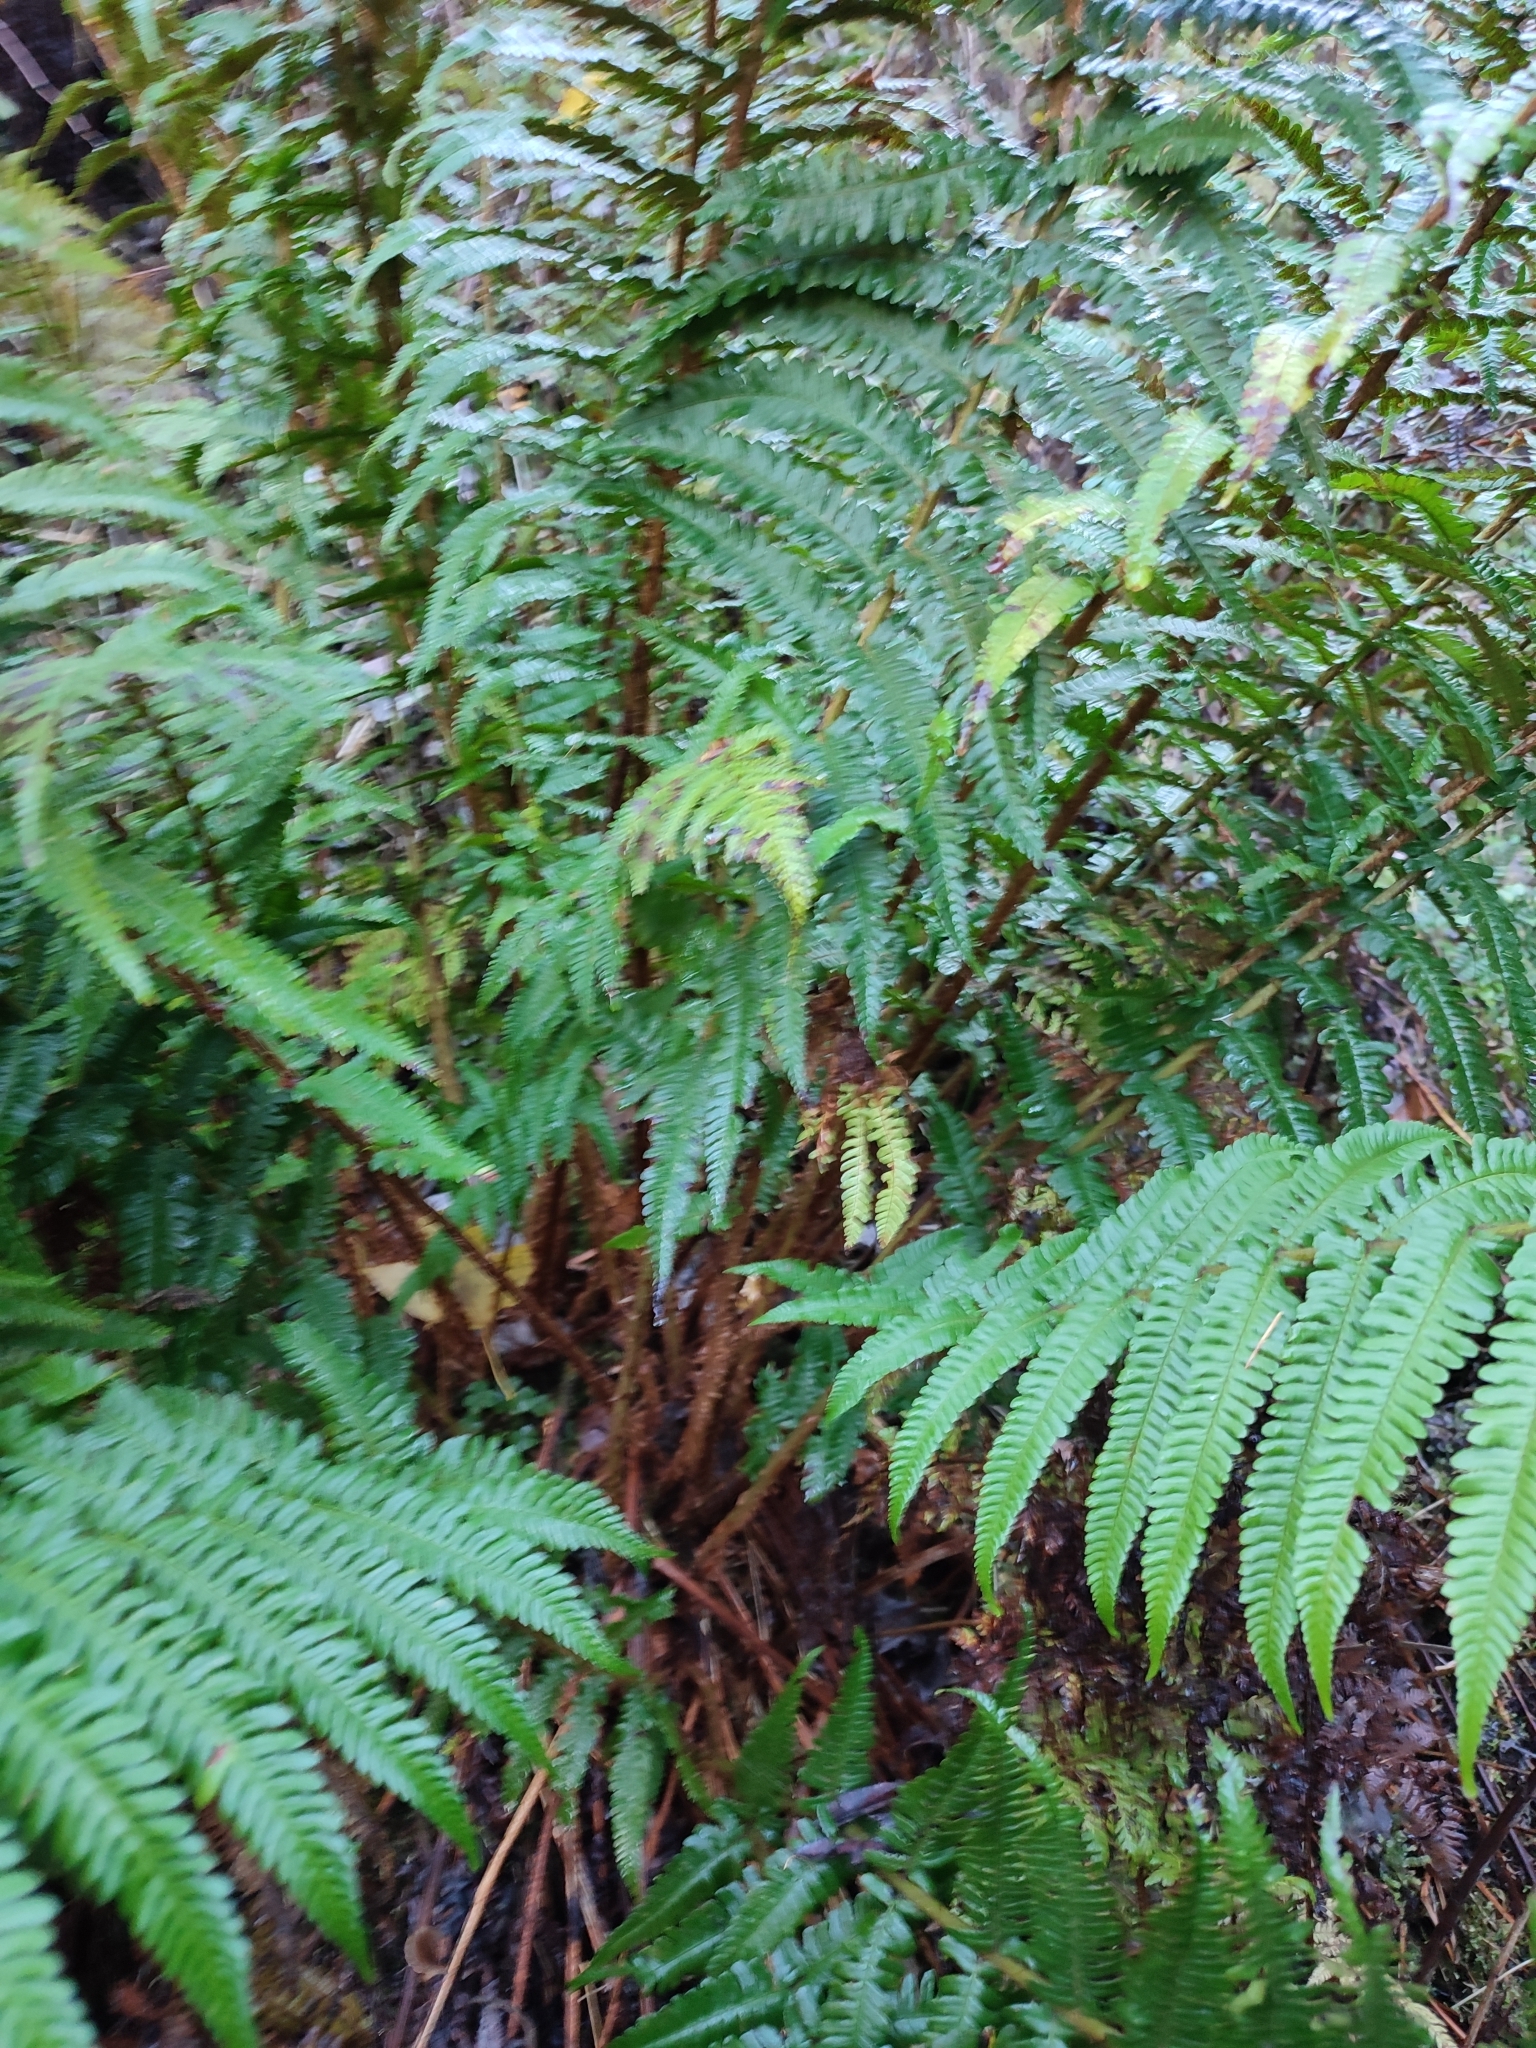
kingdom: Plantae
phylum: Tracheophyta
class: Polypodiopsida
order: Polypodiales
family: Dryopteridaceae
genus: Dryopteris
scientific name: Dryopteris borreri
